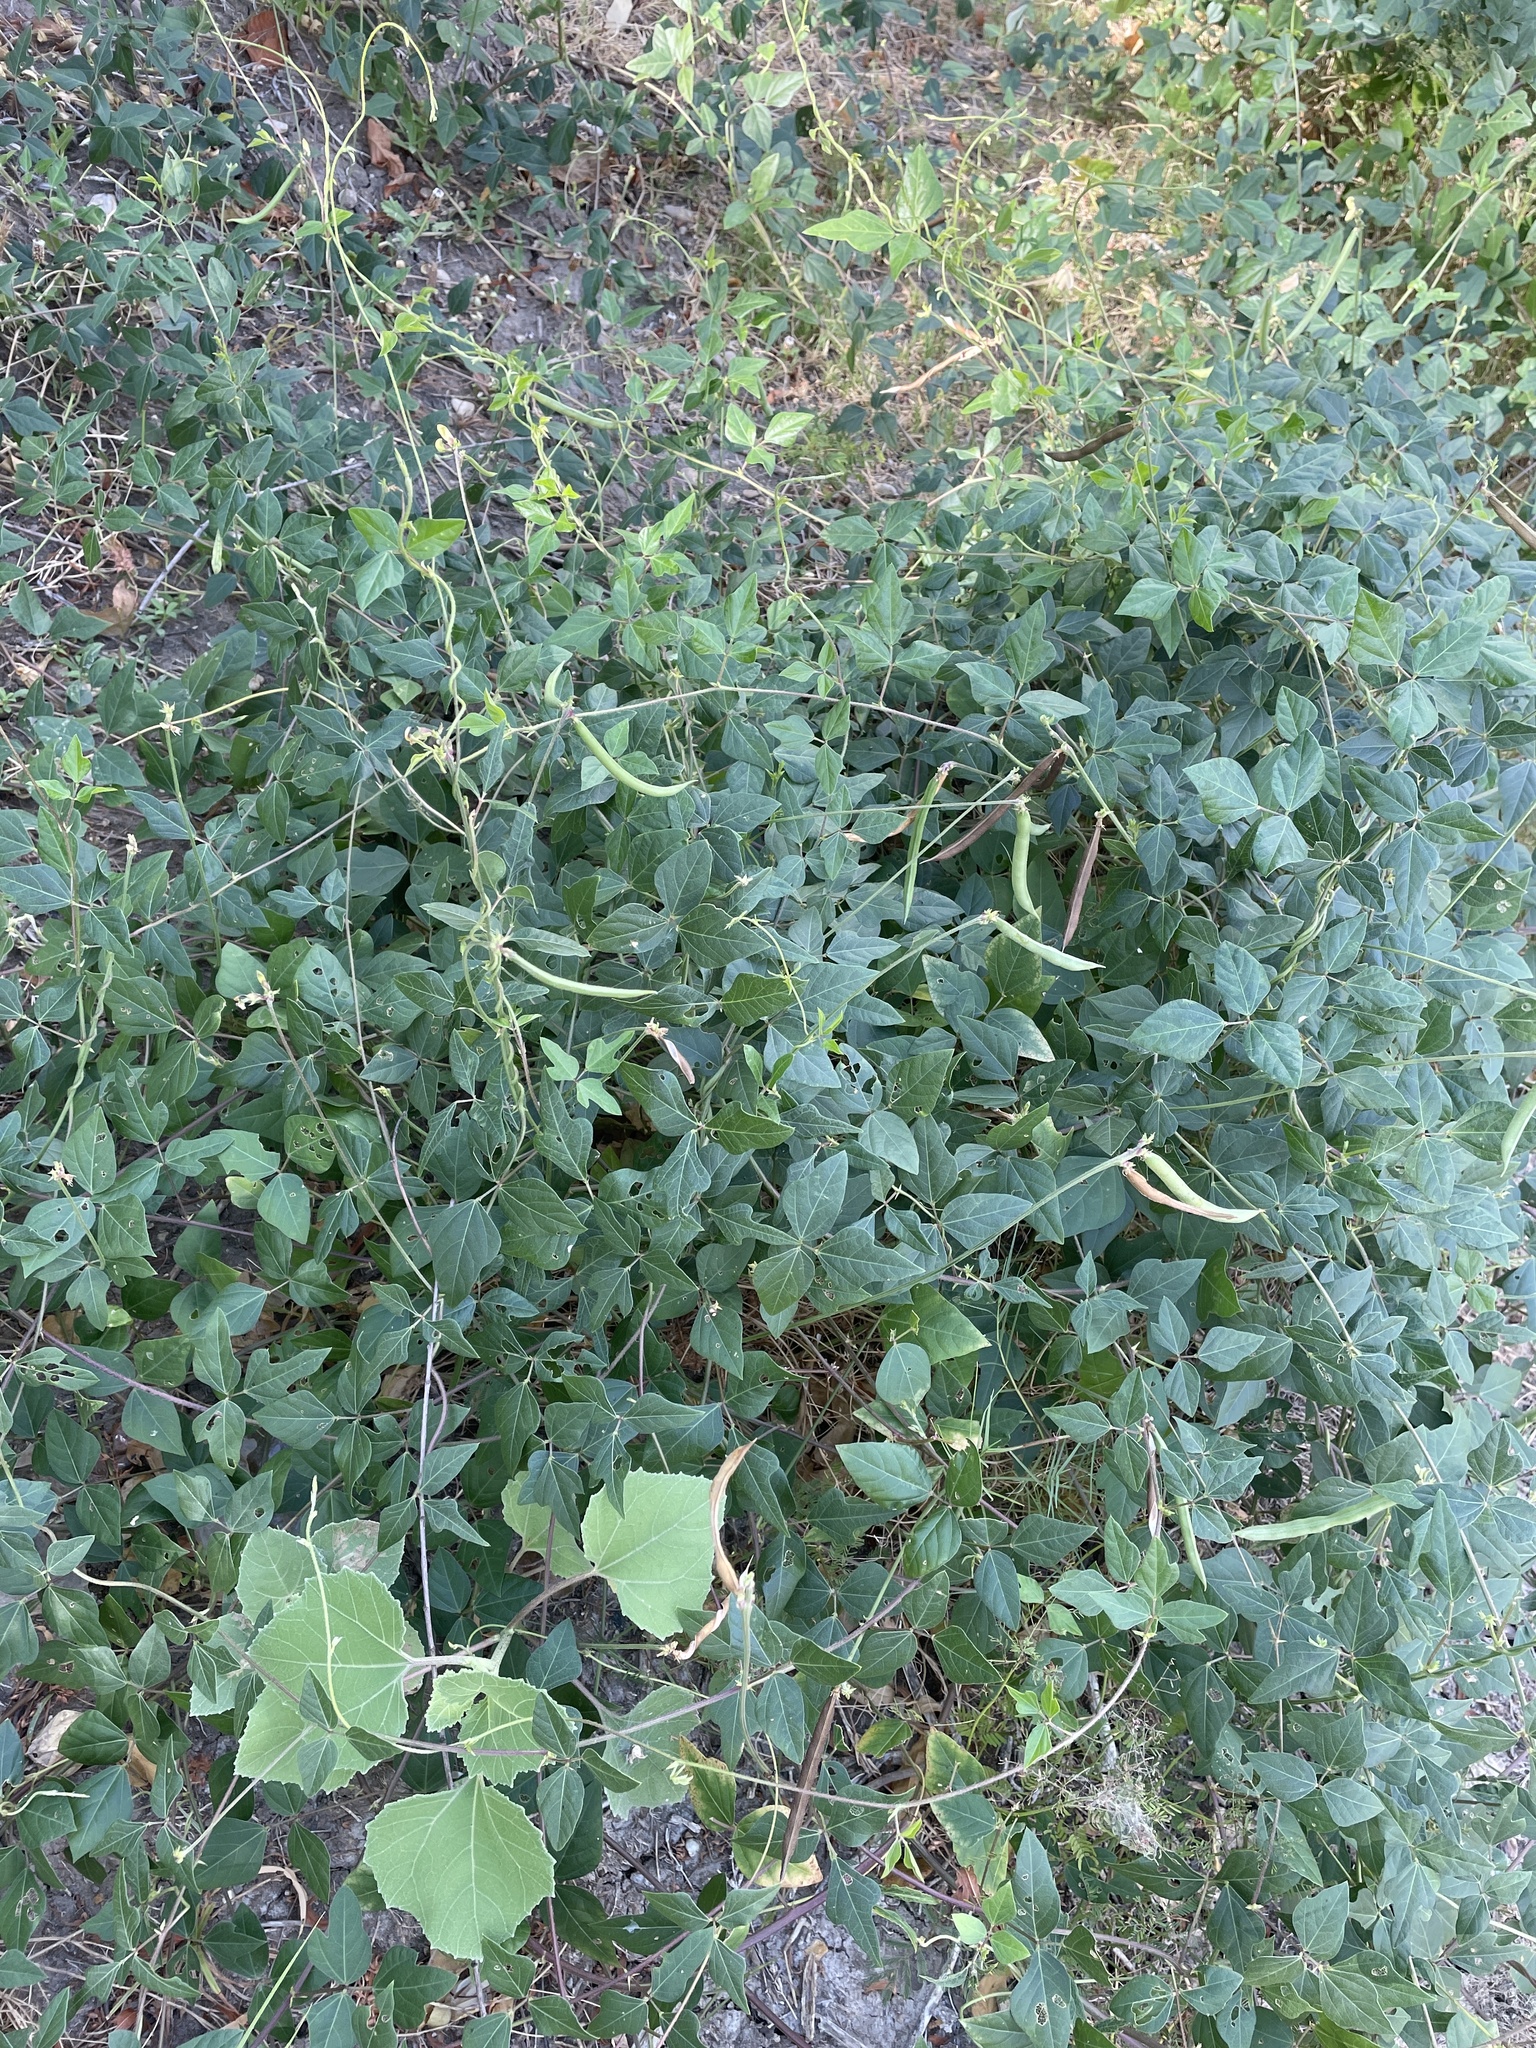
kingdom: Plantae
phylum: Tracheophyta
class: Magnoliopsida
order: Fabales
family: Fabaceae
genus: Strophostyles
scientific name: Strophostyles helvola
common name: Trailing wild bean
